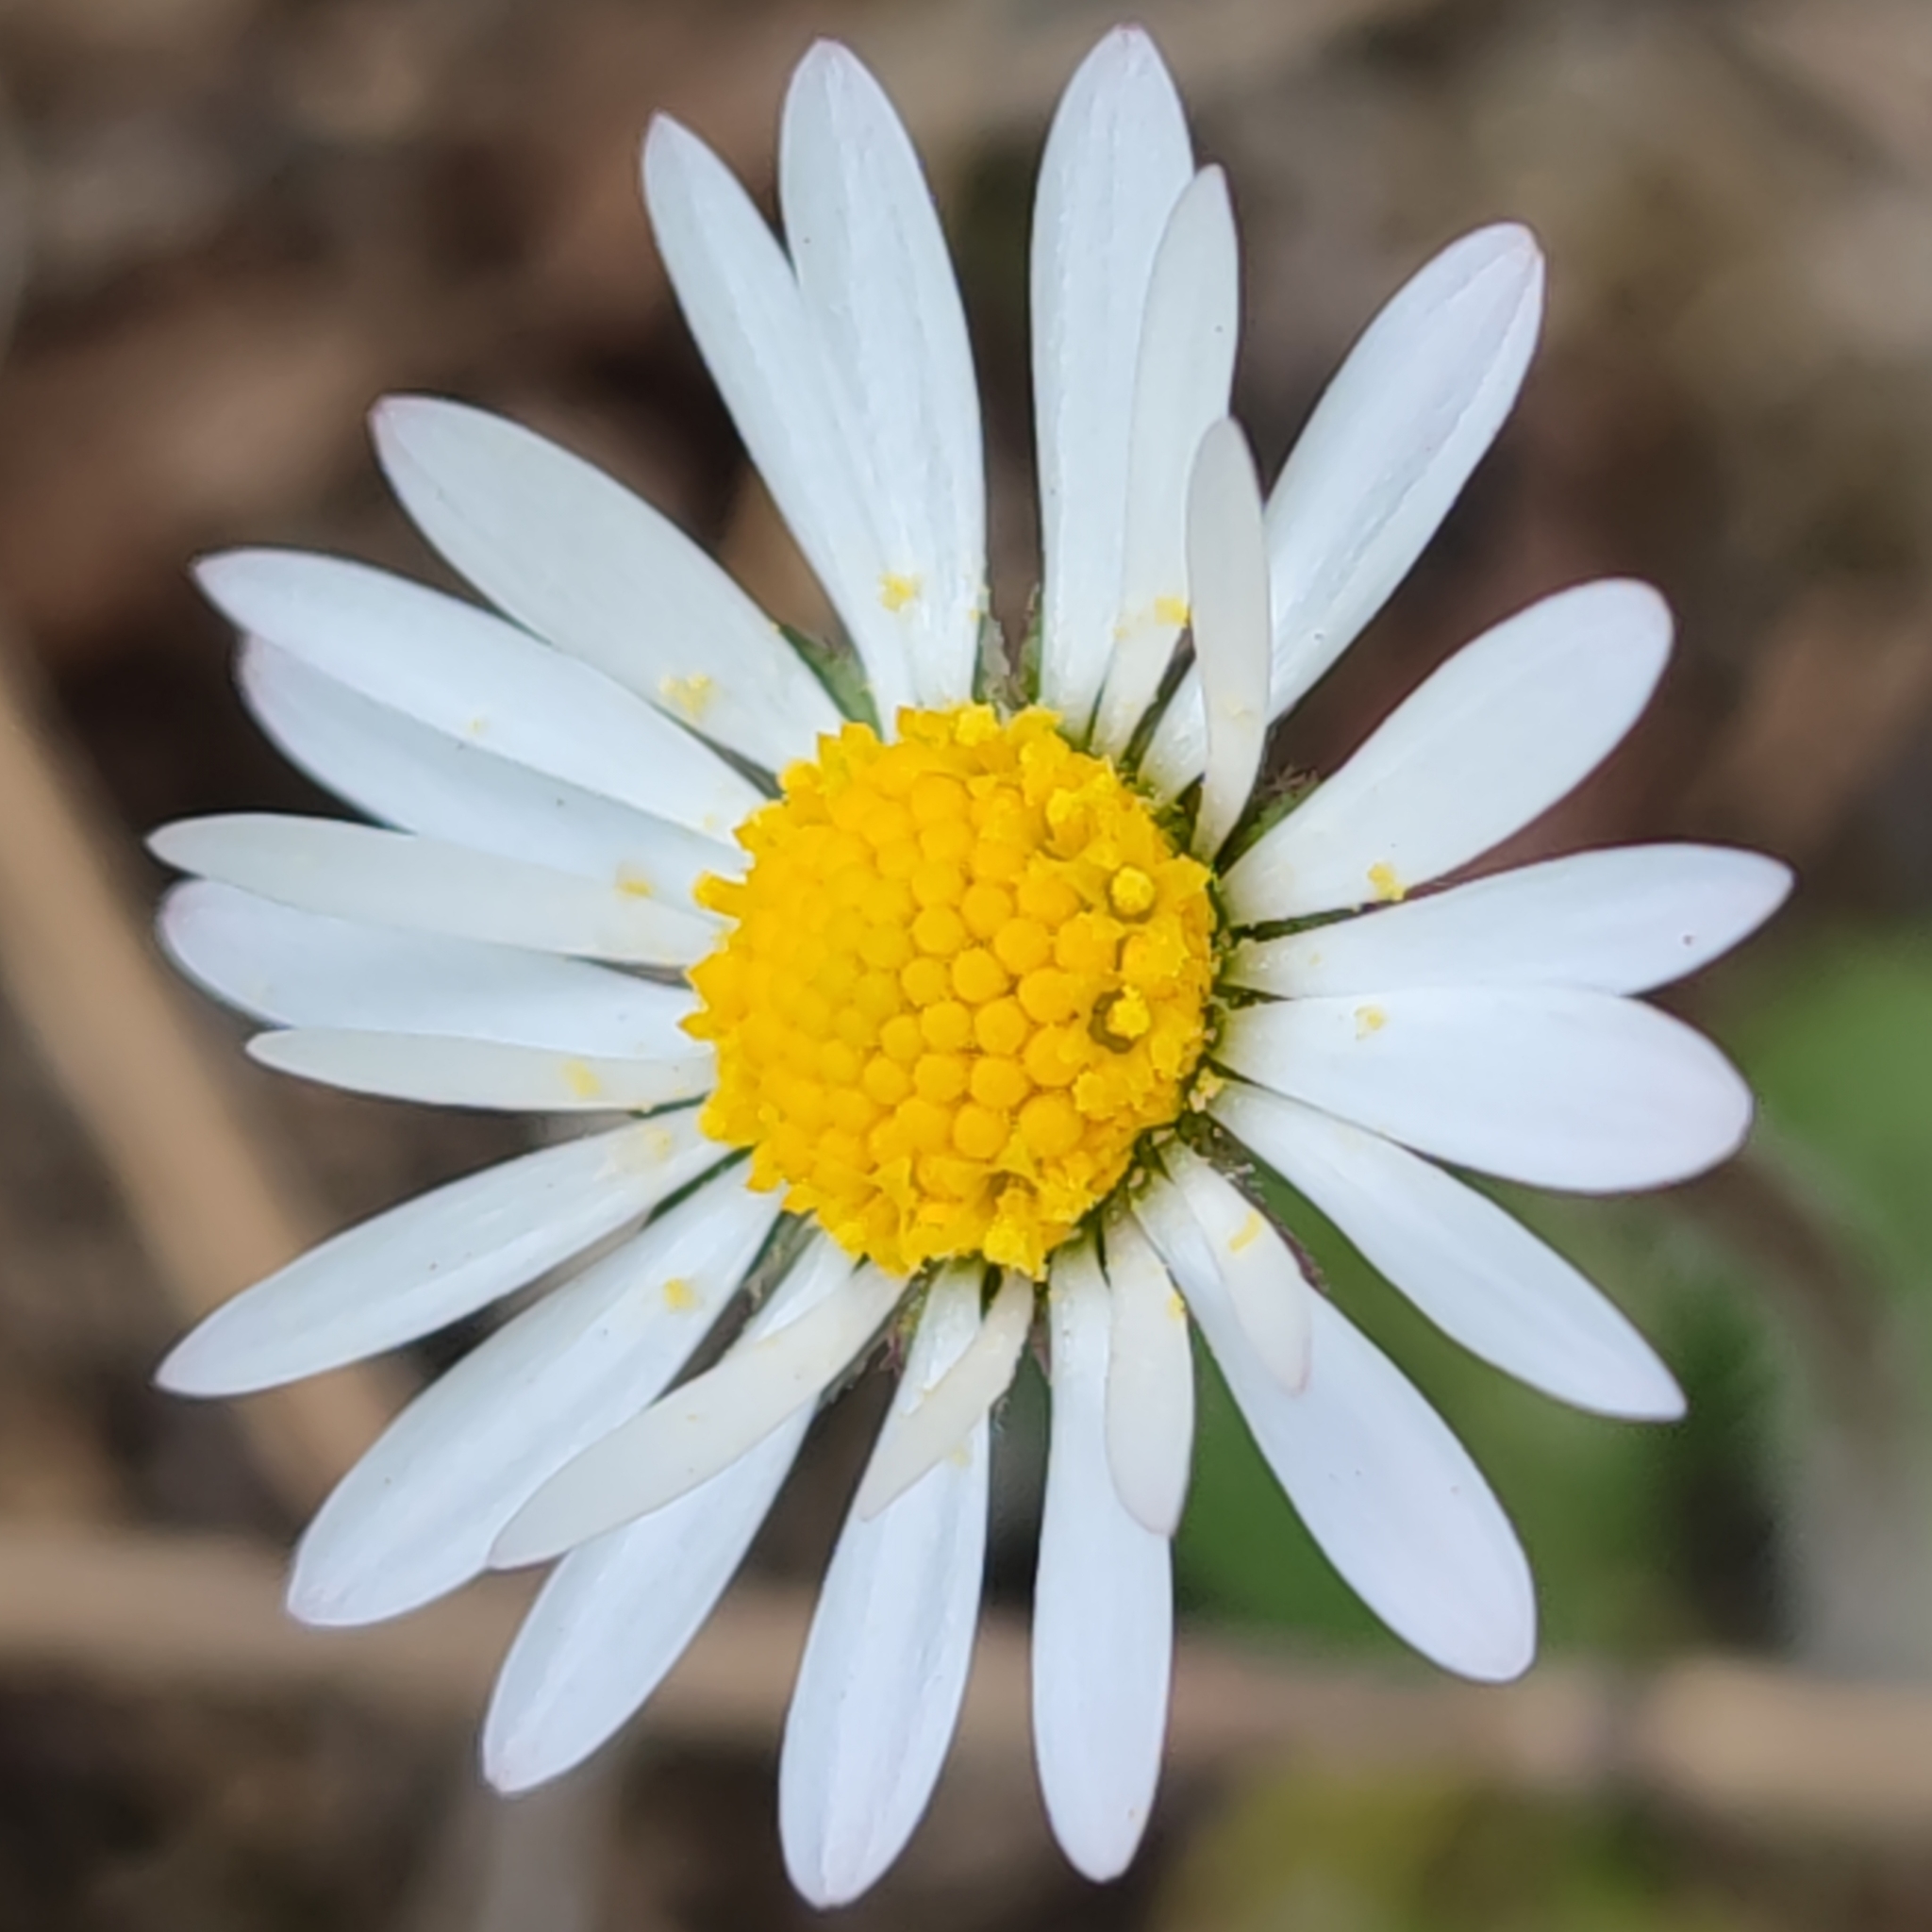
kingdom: Plantae
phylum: Tracheophyta
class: Magnoliopsida
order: Asterales
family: Asteraceae
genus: Bellis
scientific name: Bellis perennis
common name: Lawndaisy
